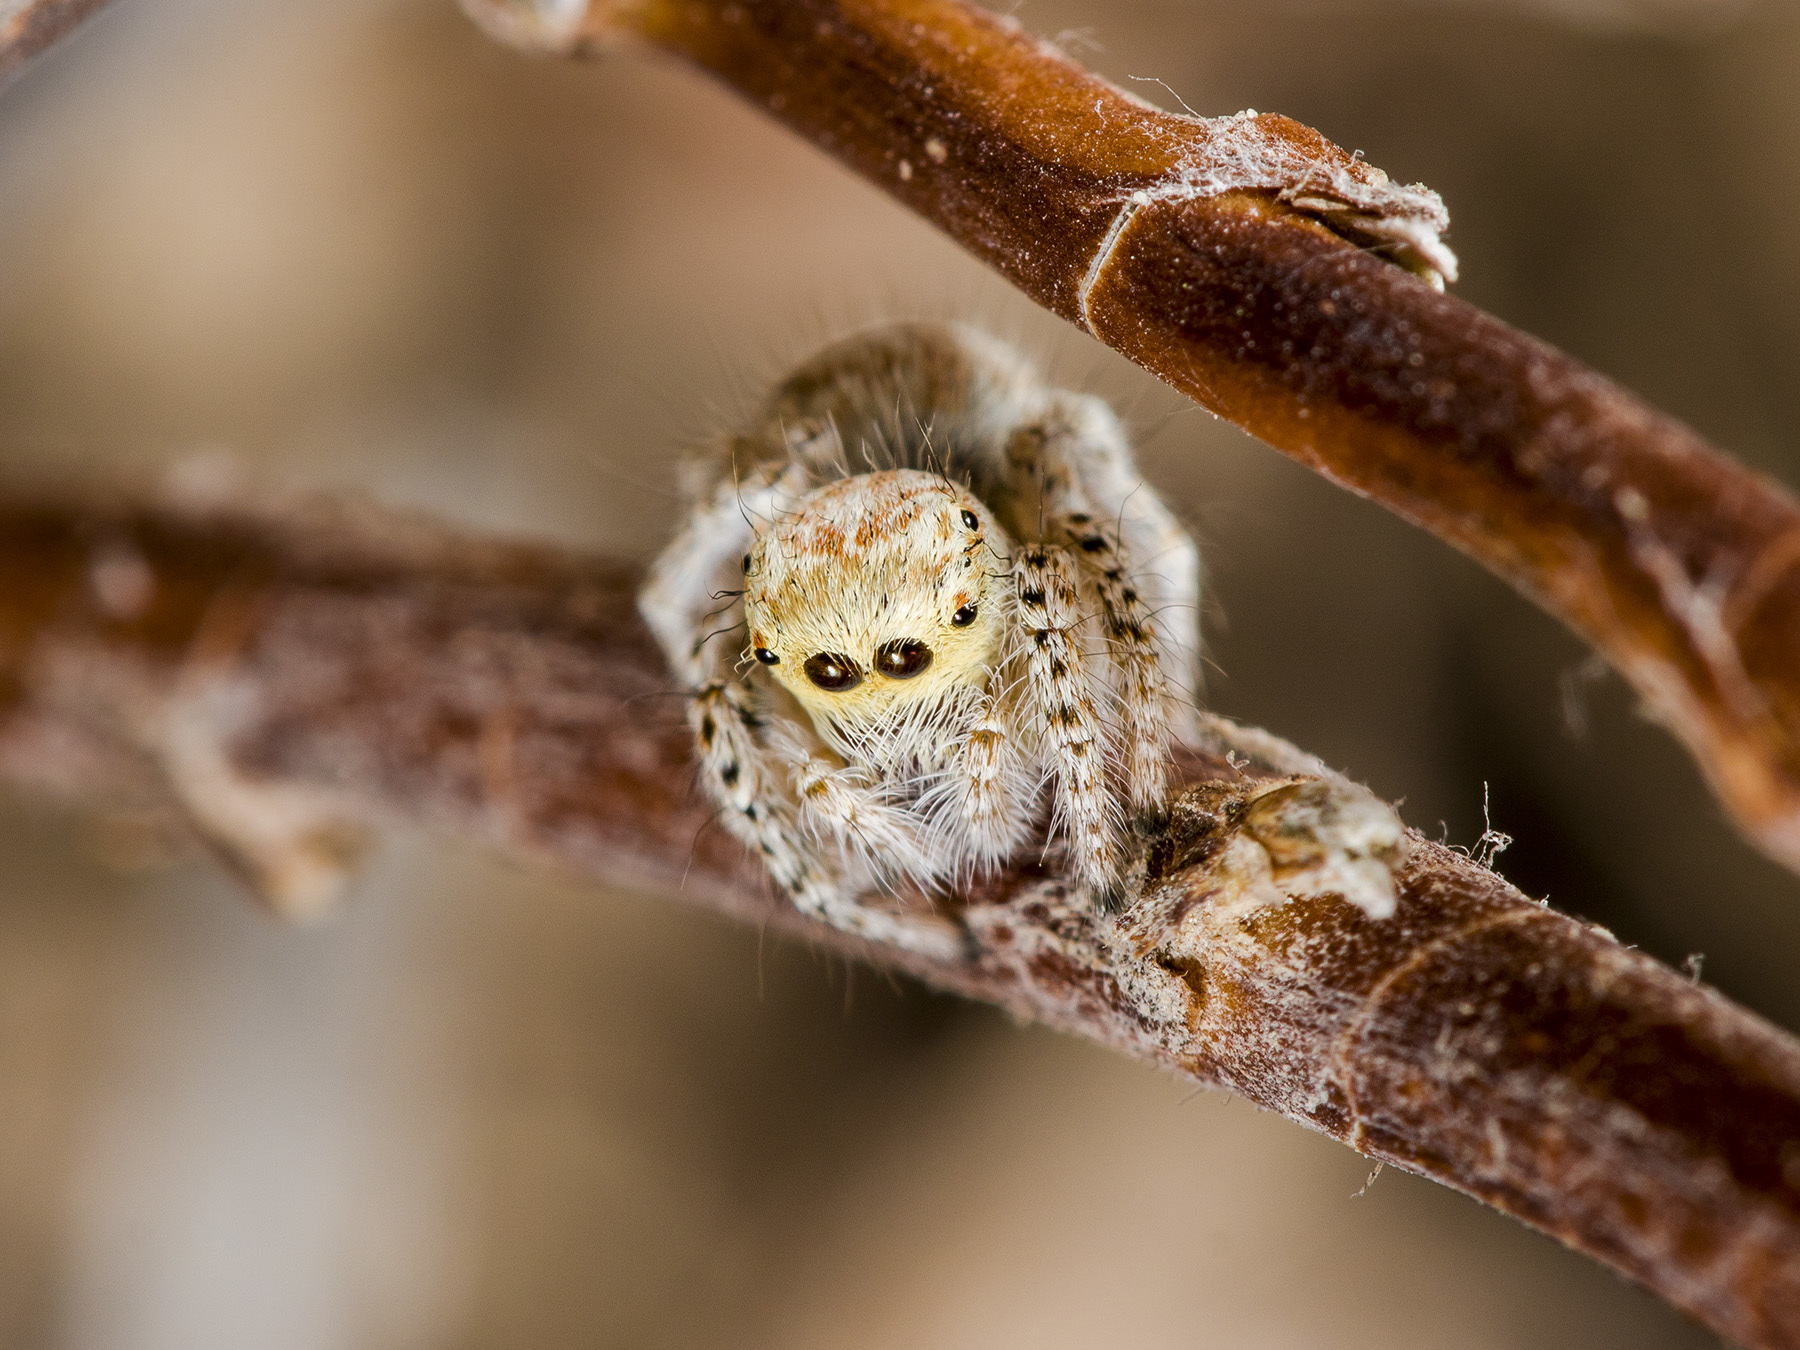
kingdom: Animalia
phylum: Arthropoda
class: Arachnida
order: Araneae
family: Salticidae
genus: Mogrus
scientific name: Mogrus larisae
